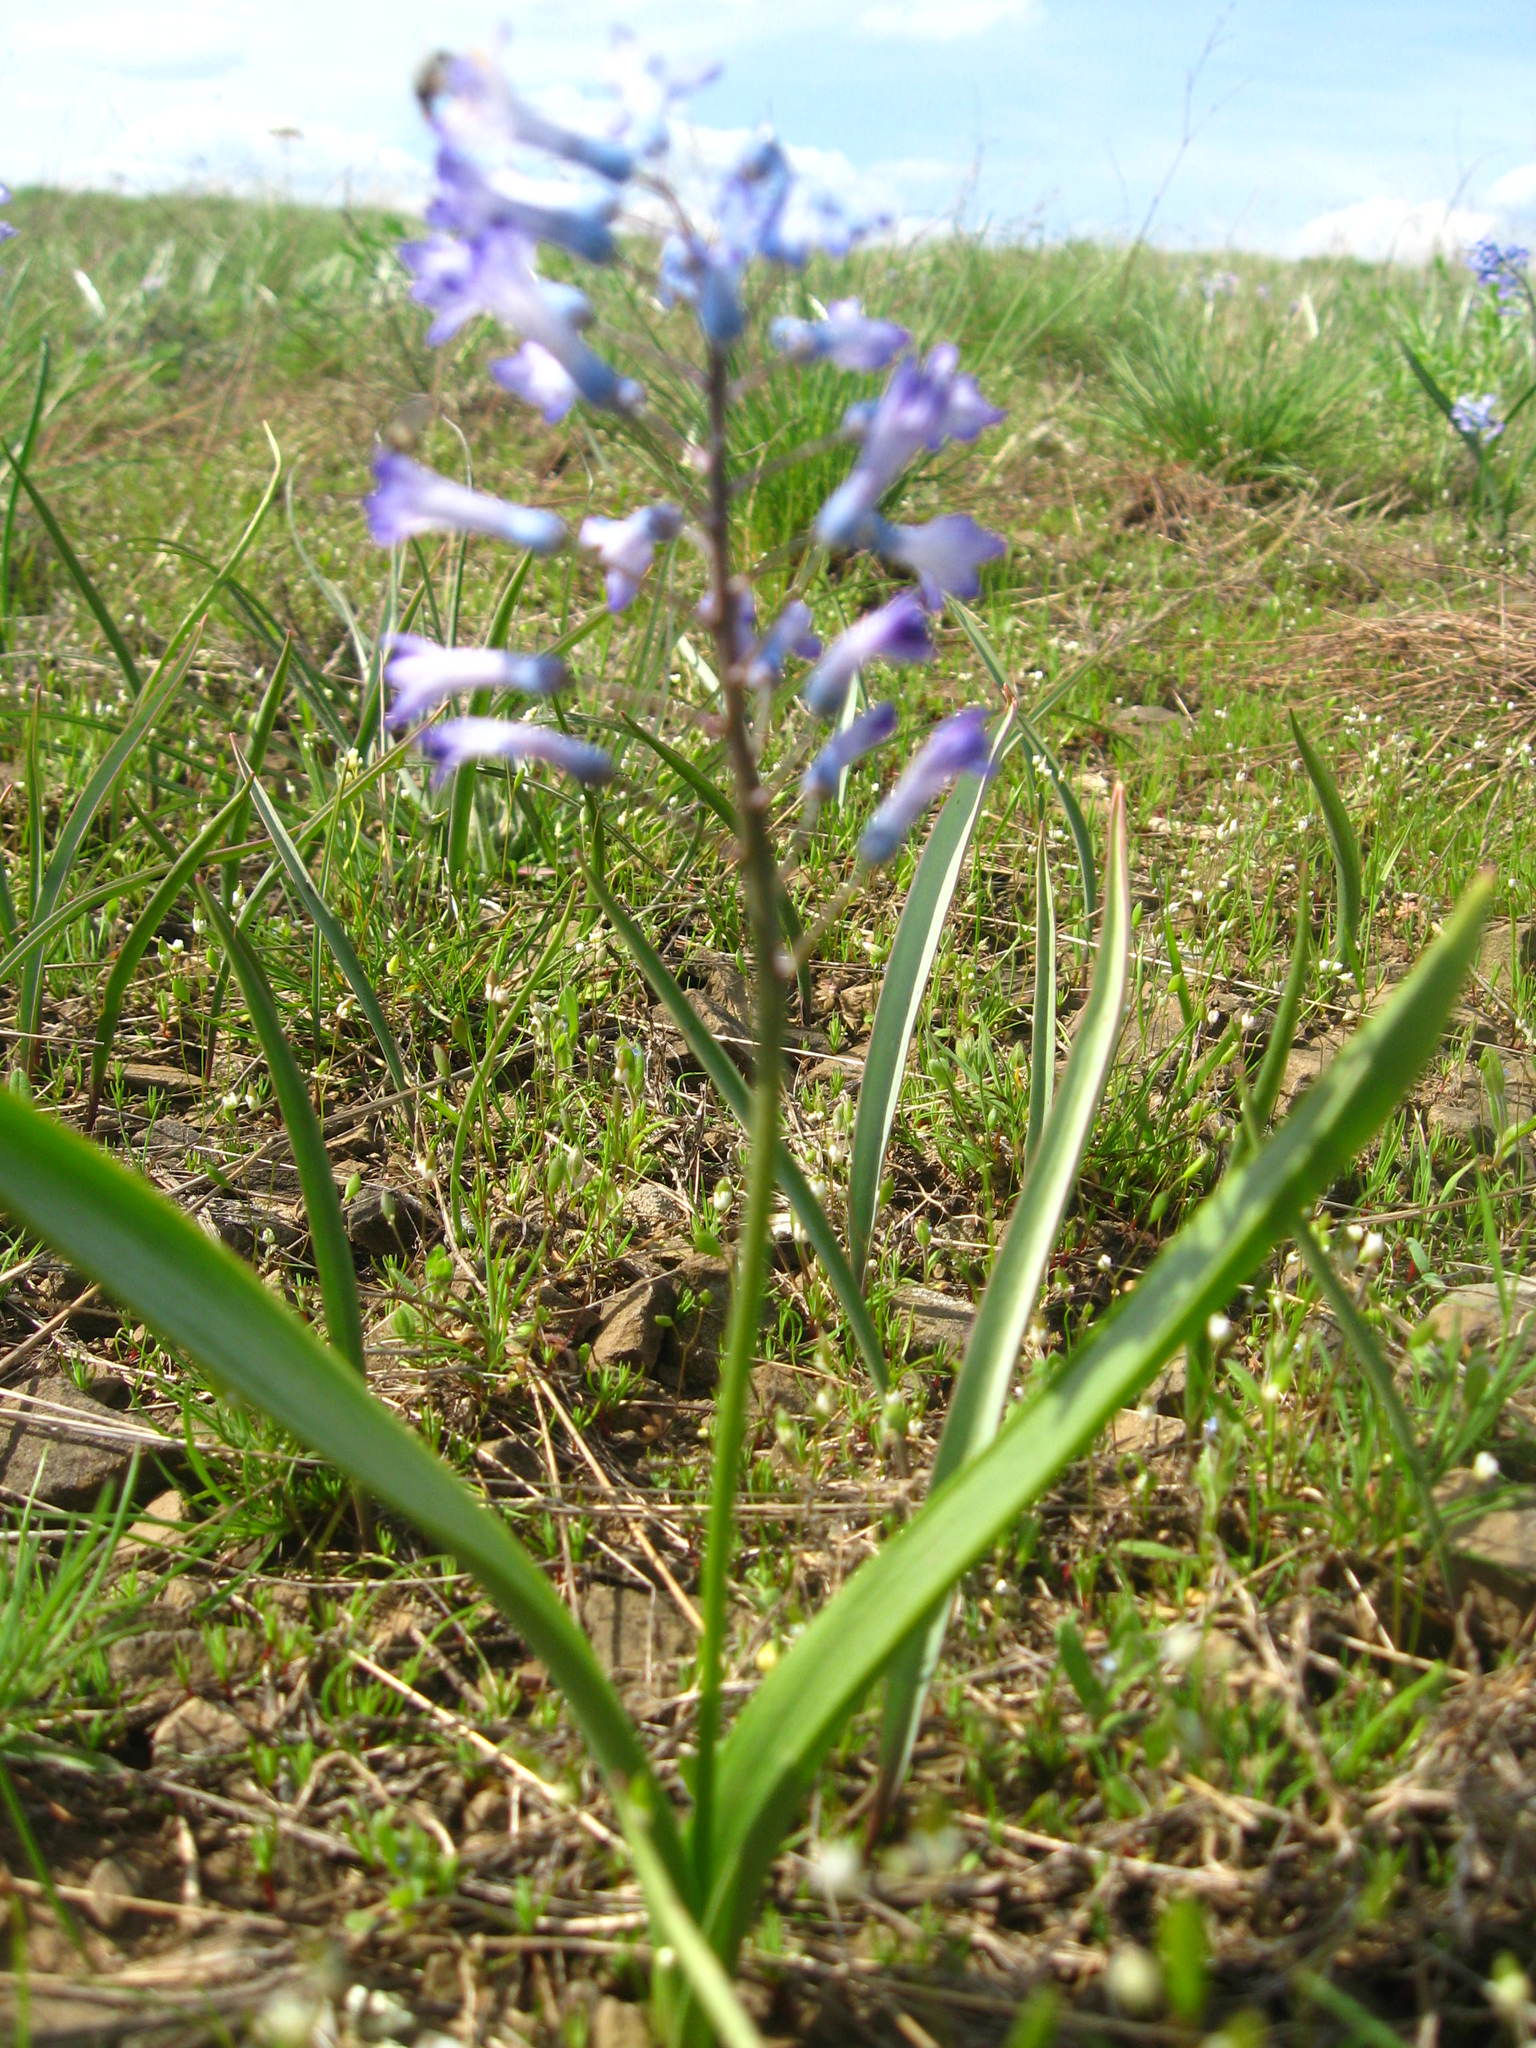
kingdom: Plantae
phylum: Tracheophyta
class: Liliopsida
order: Asparagales
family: Asparagaceae
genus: Hyacinthella
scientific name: Hyacinthella pallasiana
